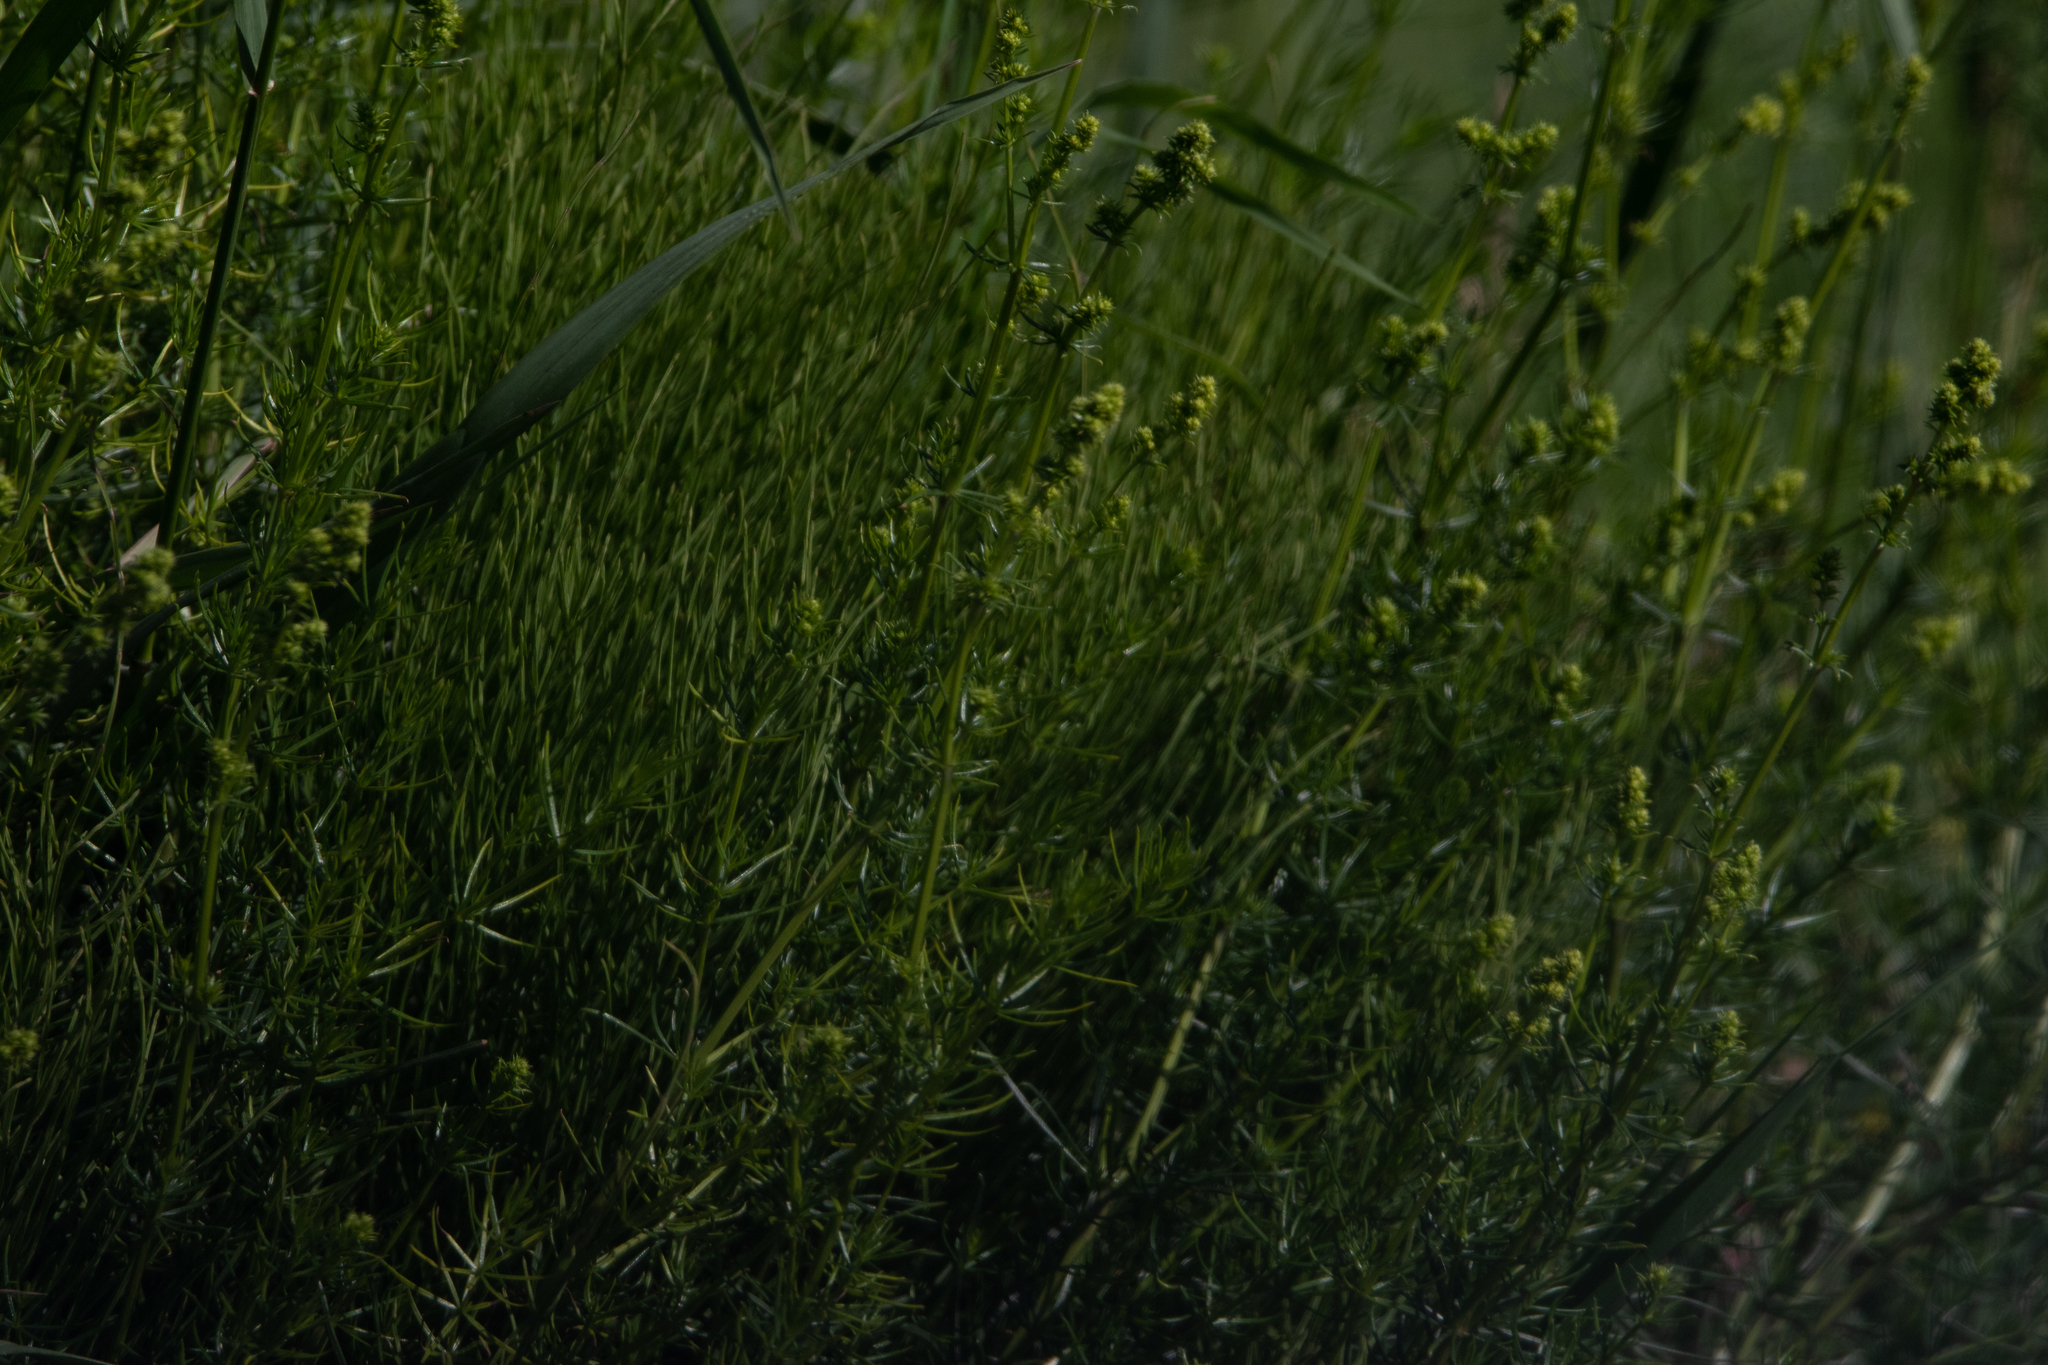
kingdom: Plantae
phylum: Tracheophyta
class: Magnoliopsida
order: Gentianales
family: Rubiaceae
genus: Galium
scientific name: Galium verum
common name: Lady's bedstraw
